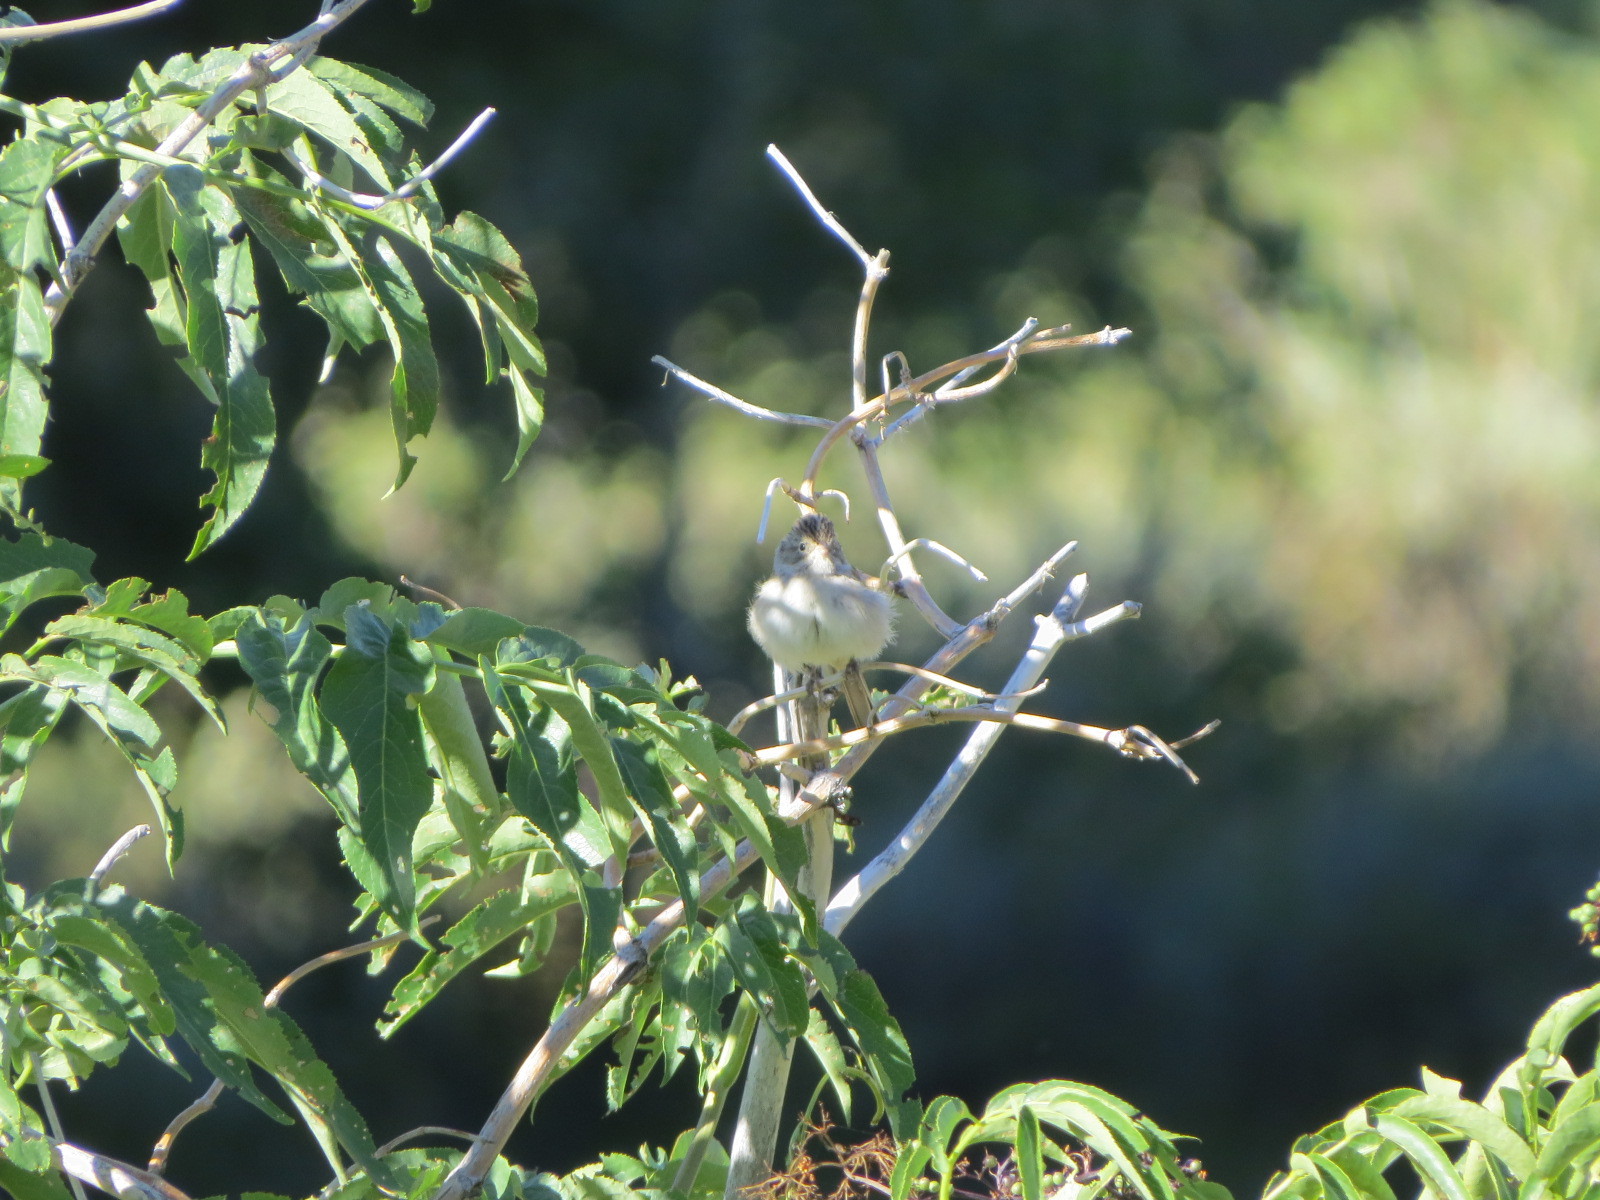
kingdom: Animalia
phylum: Chordata
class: Aves
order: Passeriformes
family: Passerellidae
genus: Spizella
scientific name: Spizella breweri
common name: Brewer's sparrow
